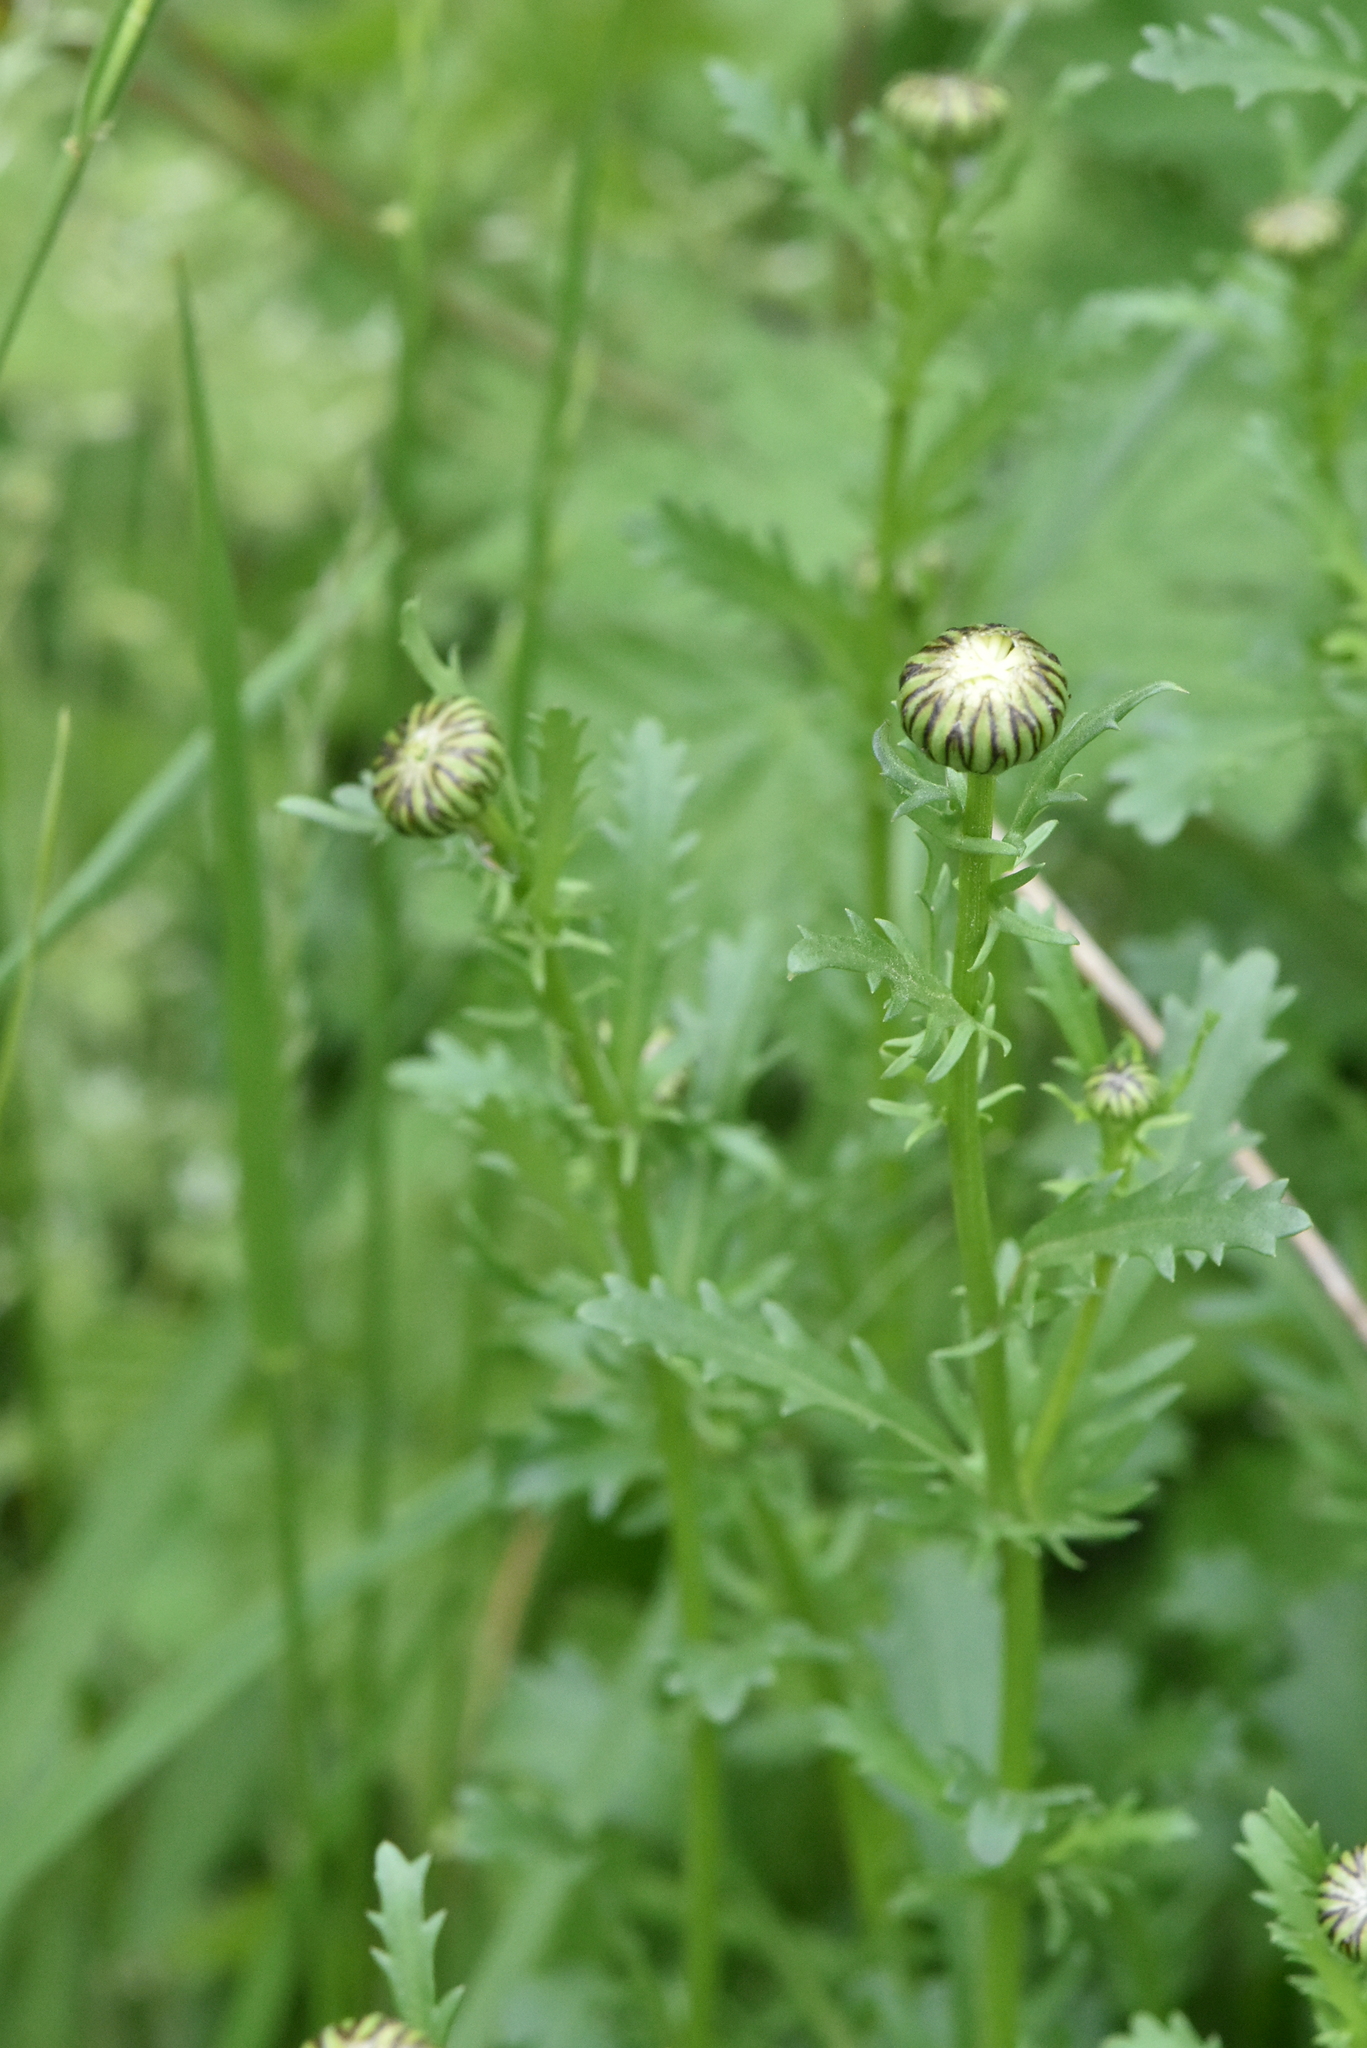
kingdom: Plantae
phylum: Tracheophyta
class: Magnoliopsida
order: Asterales
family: Asteraceae
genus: Leucanthemum
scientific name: Leucanthemum vulgare
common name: Oxeye daisy
